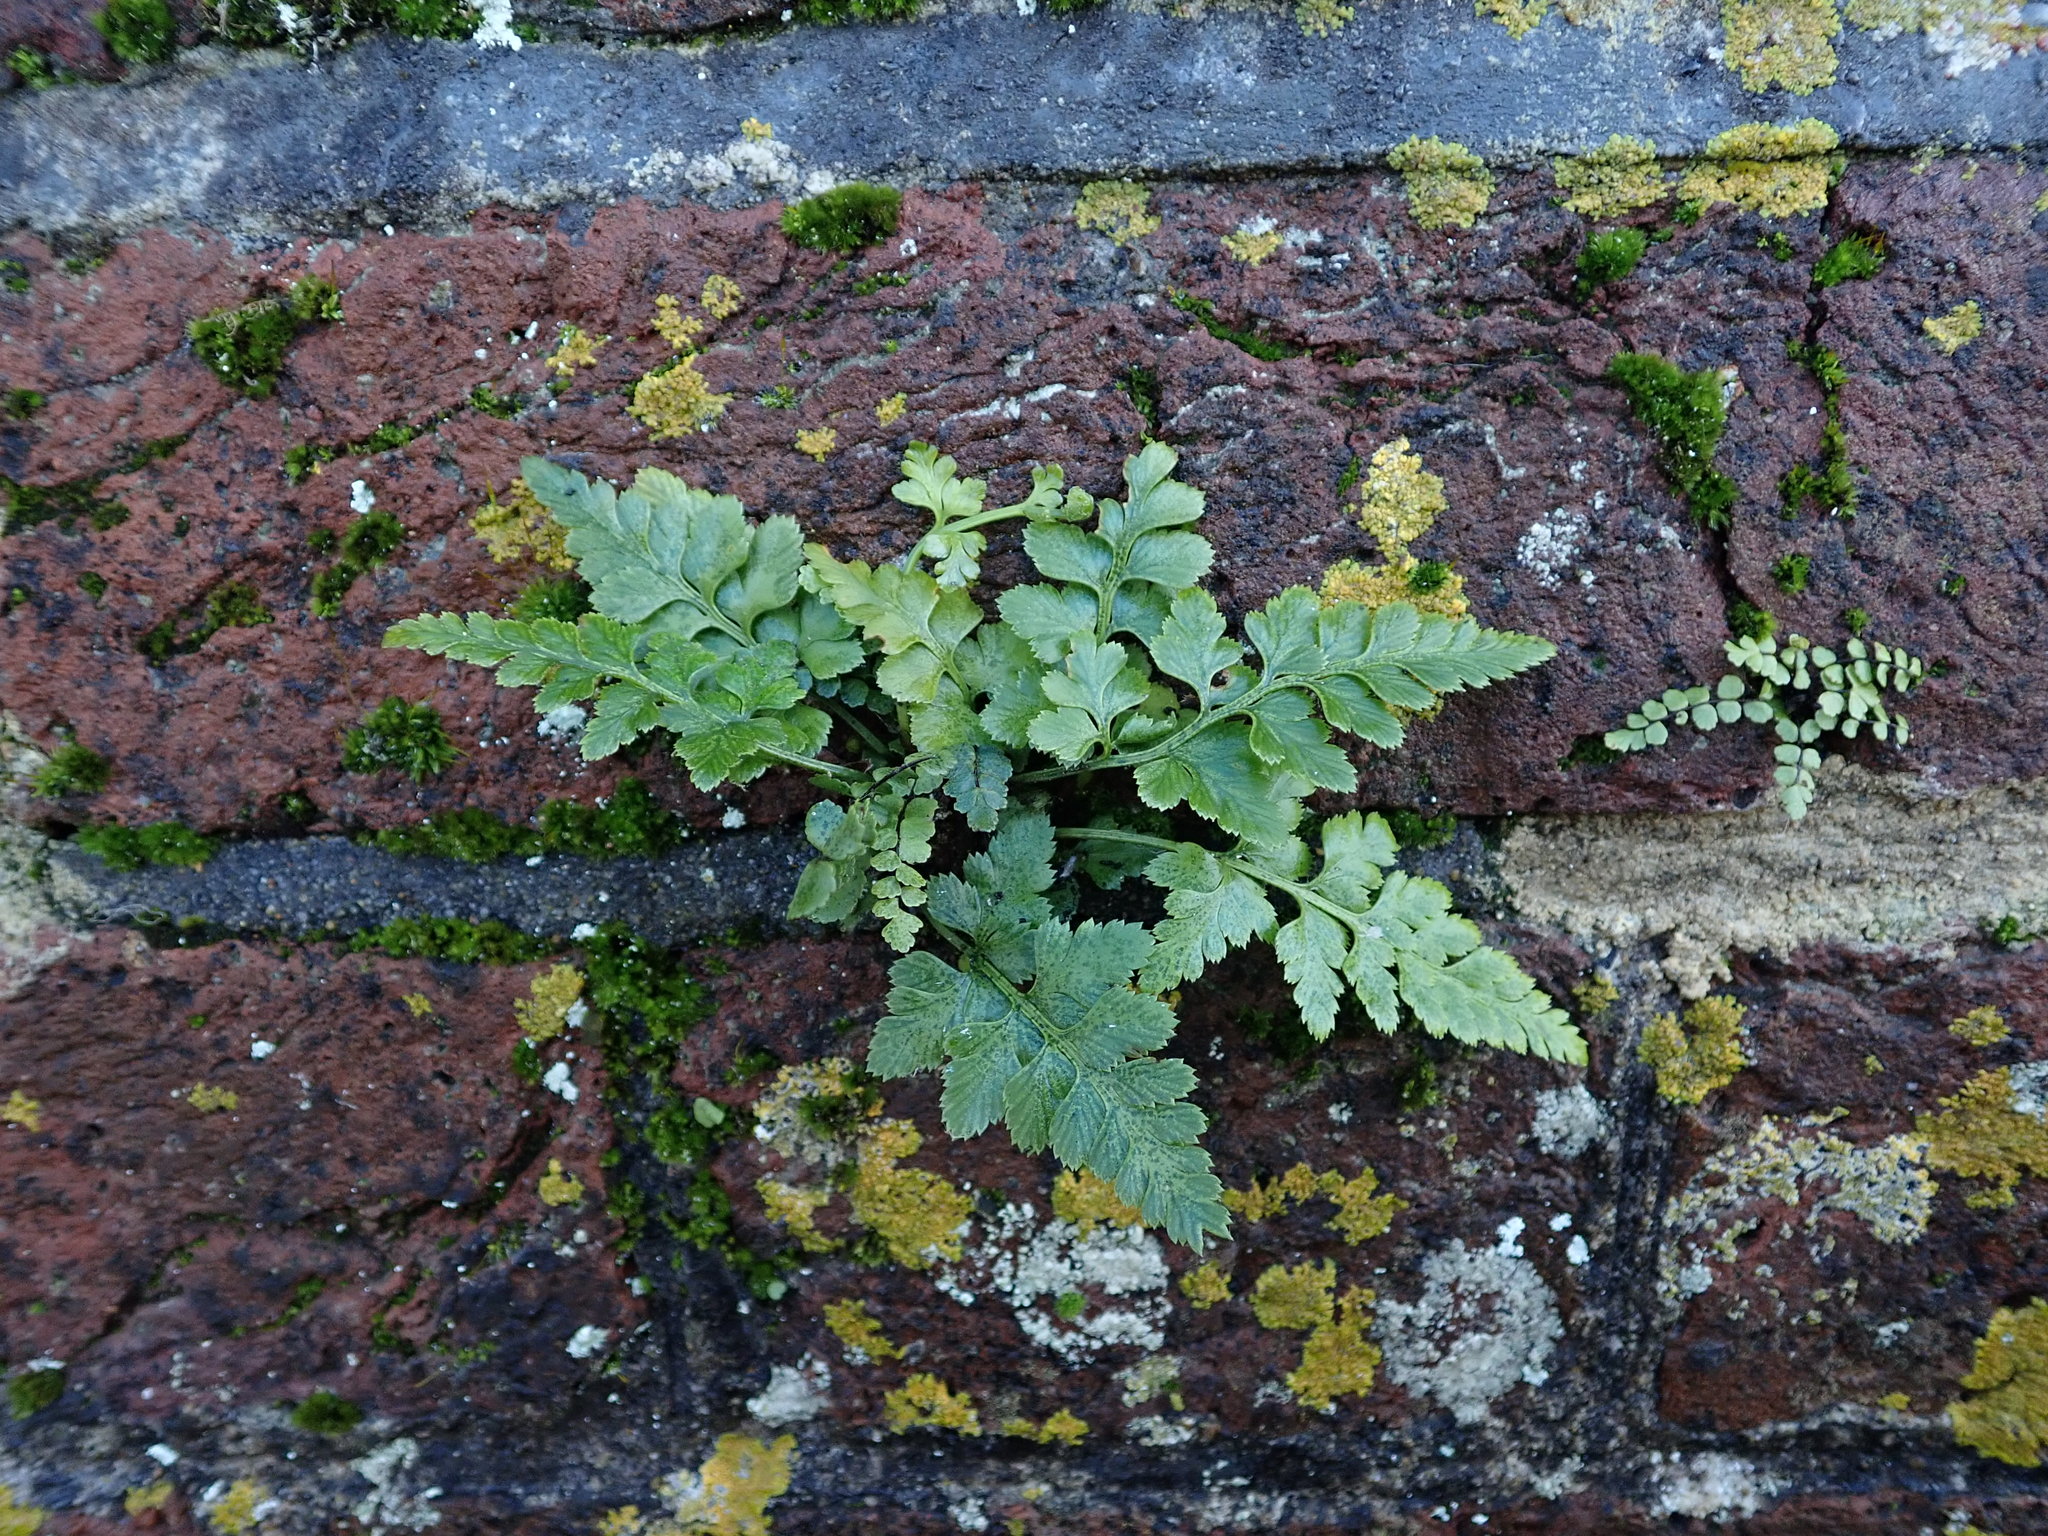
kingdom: Plantae
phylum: Tracheophyta
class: Polypodiopsida
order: Polypodiales
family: Aspleniaceae
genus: Asplenium
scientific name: Asplenium adiantum-nigrum
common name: Black spleenwort
